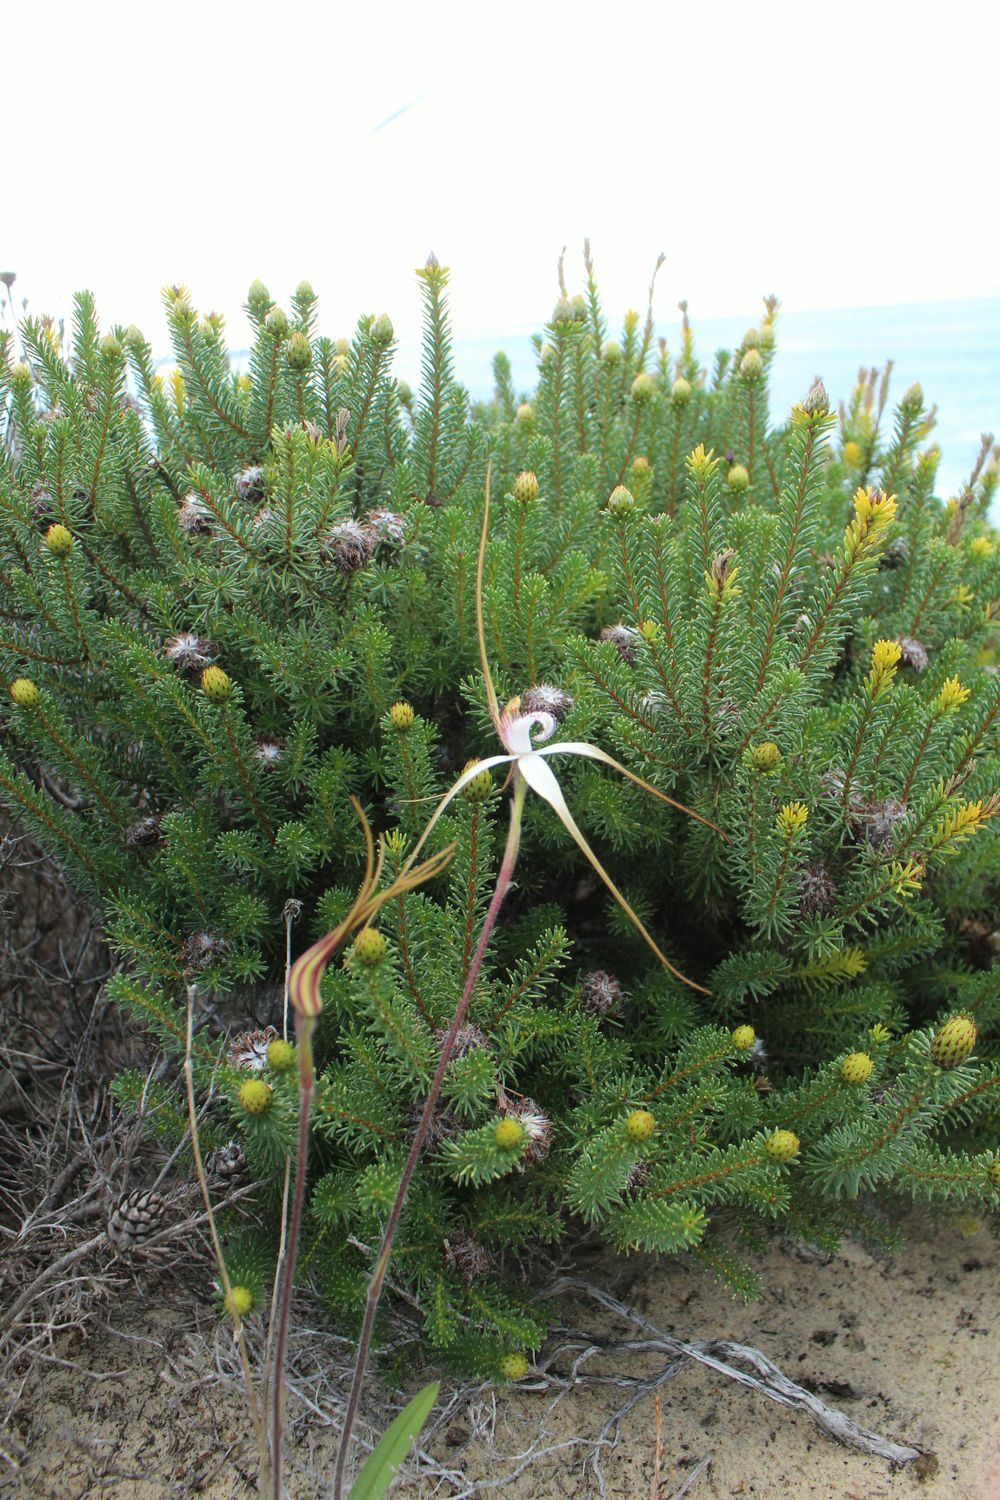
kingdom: Plantae
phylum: Tracheophyta
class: Liliopsida
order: Asparagales
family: Orchidaceae
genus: Caladenia
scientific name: Caladenia longicauda
